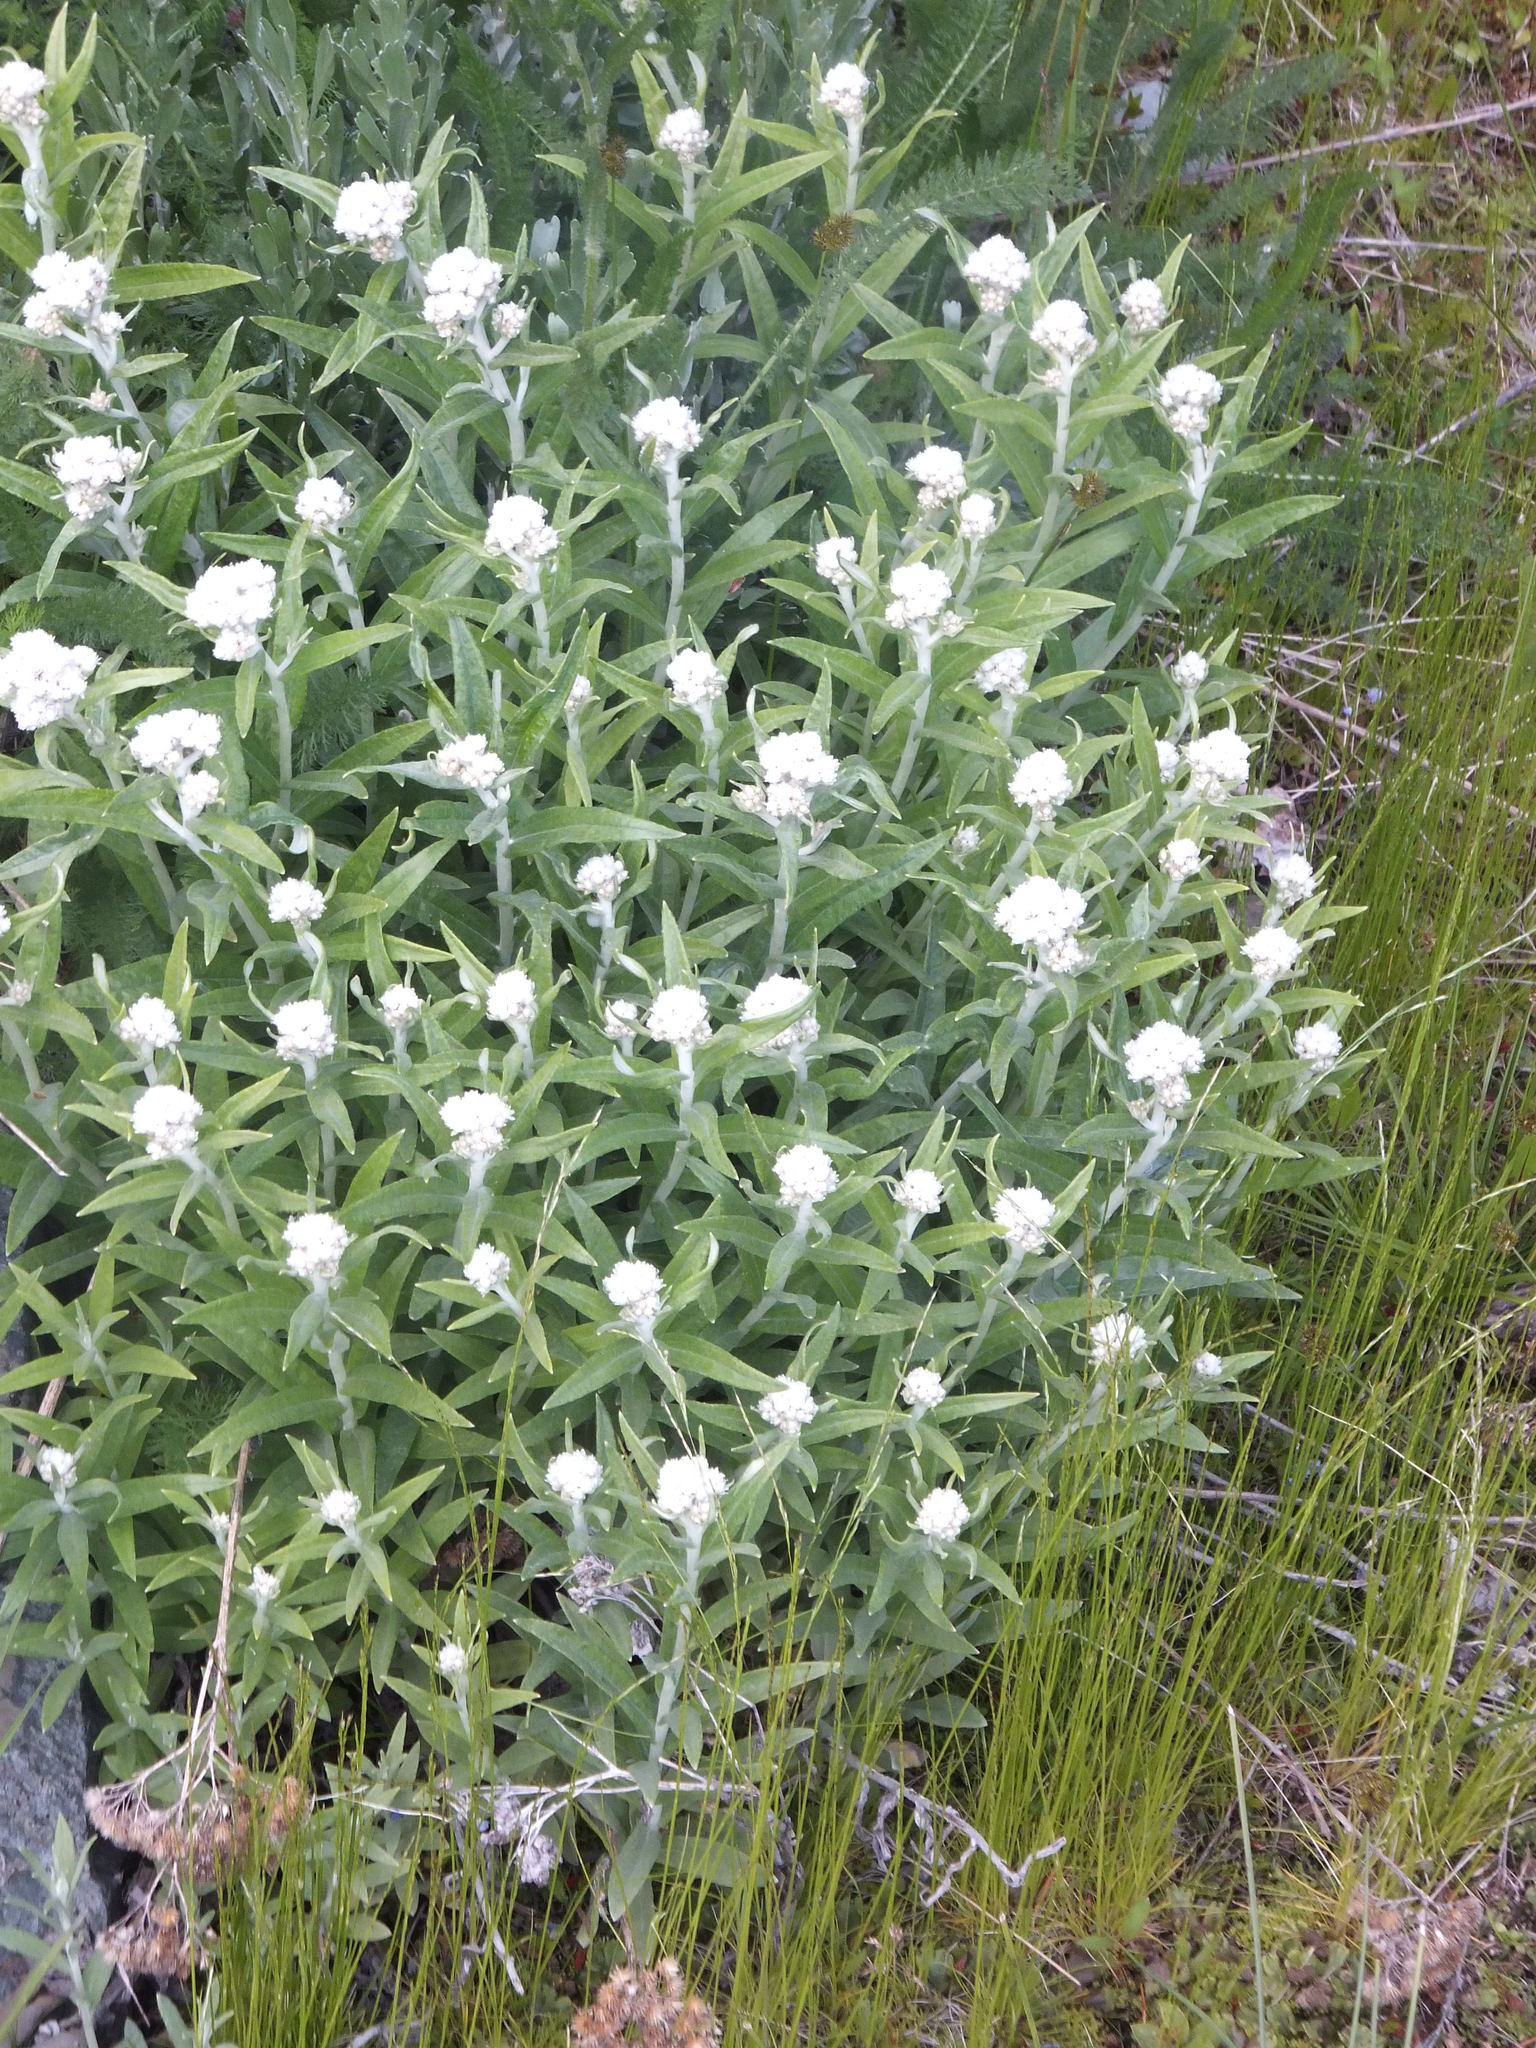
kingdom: Plantae
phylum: Tracheophyta
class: Magnoliopsida
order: Asterales
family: Asteraceae
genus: Anaphalis
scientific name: Anaphalis margaritacea
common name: Pearly everlasting
